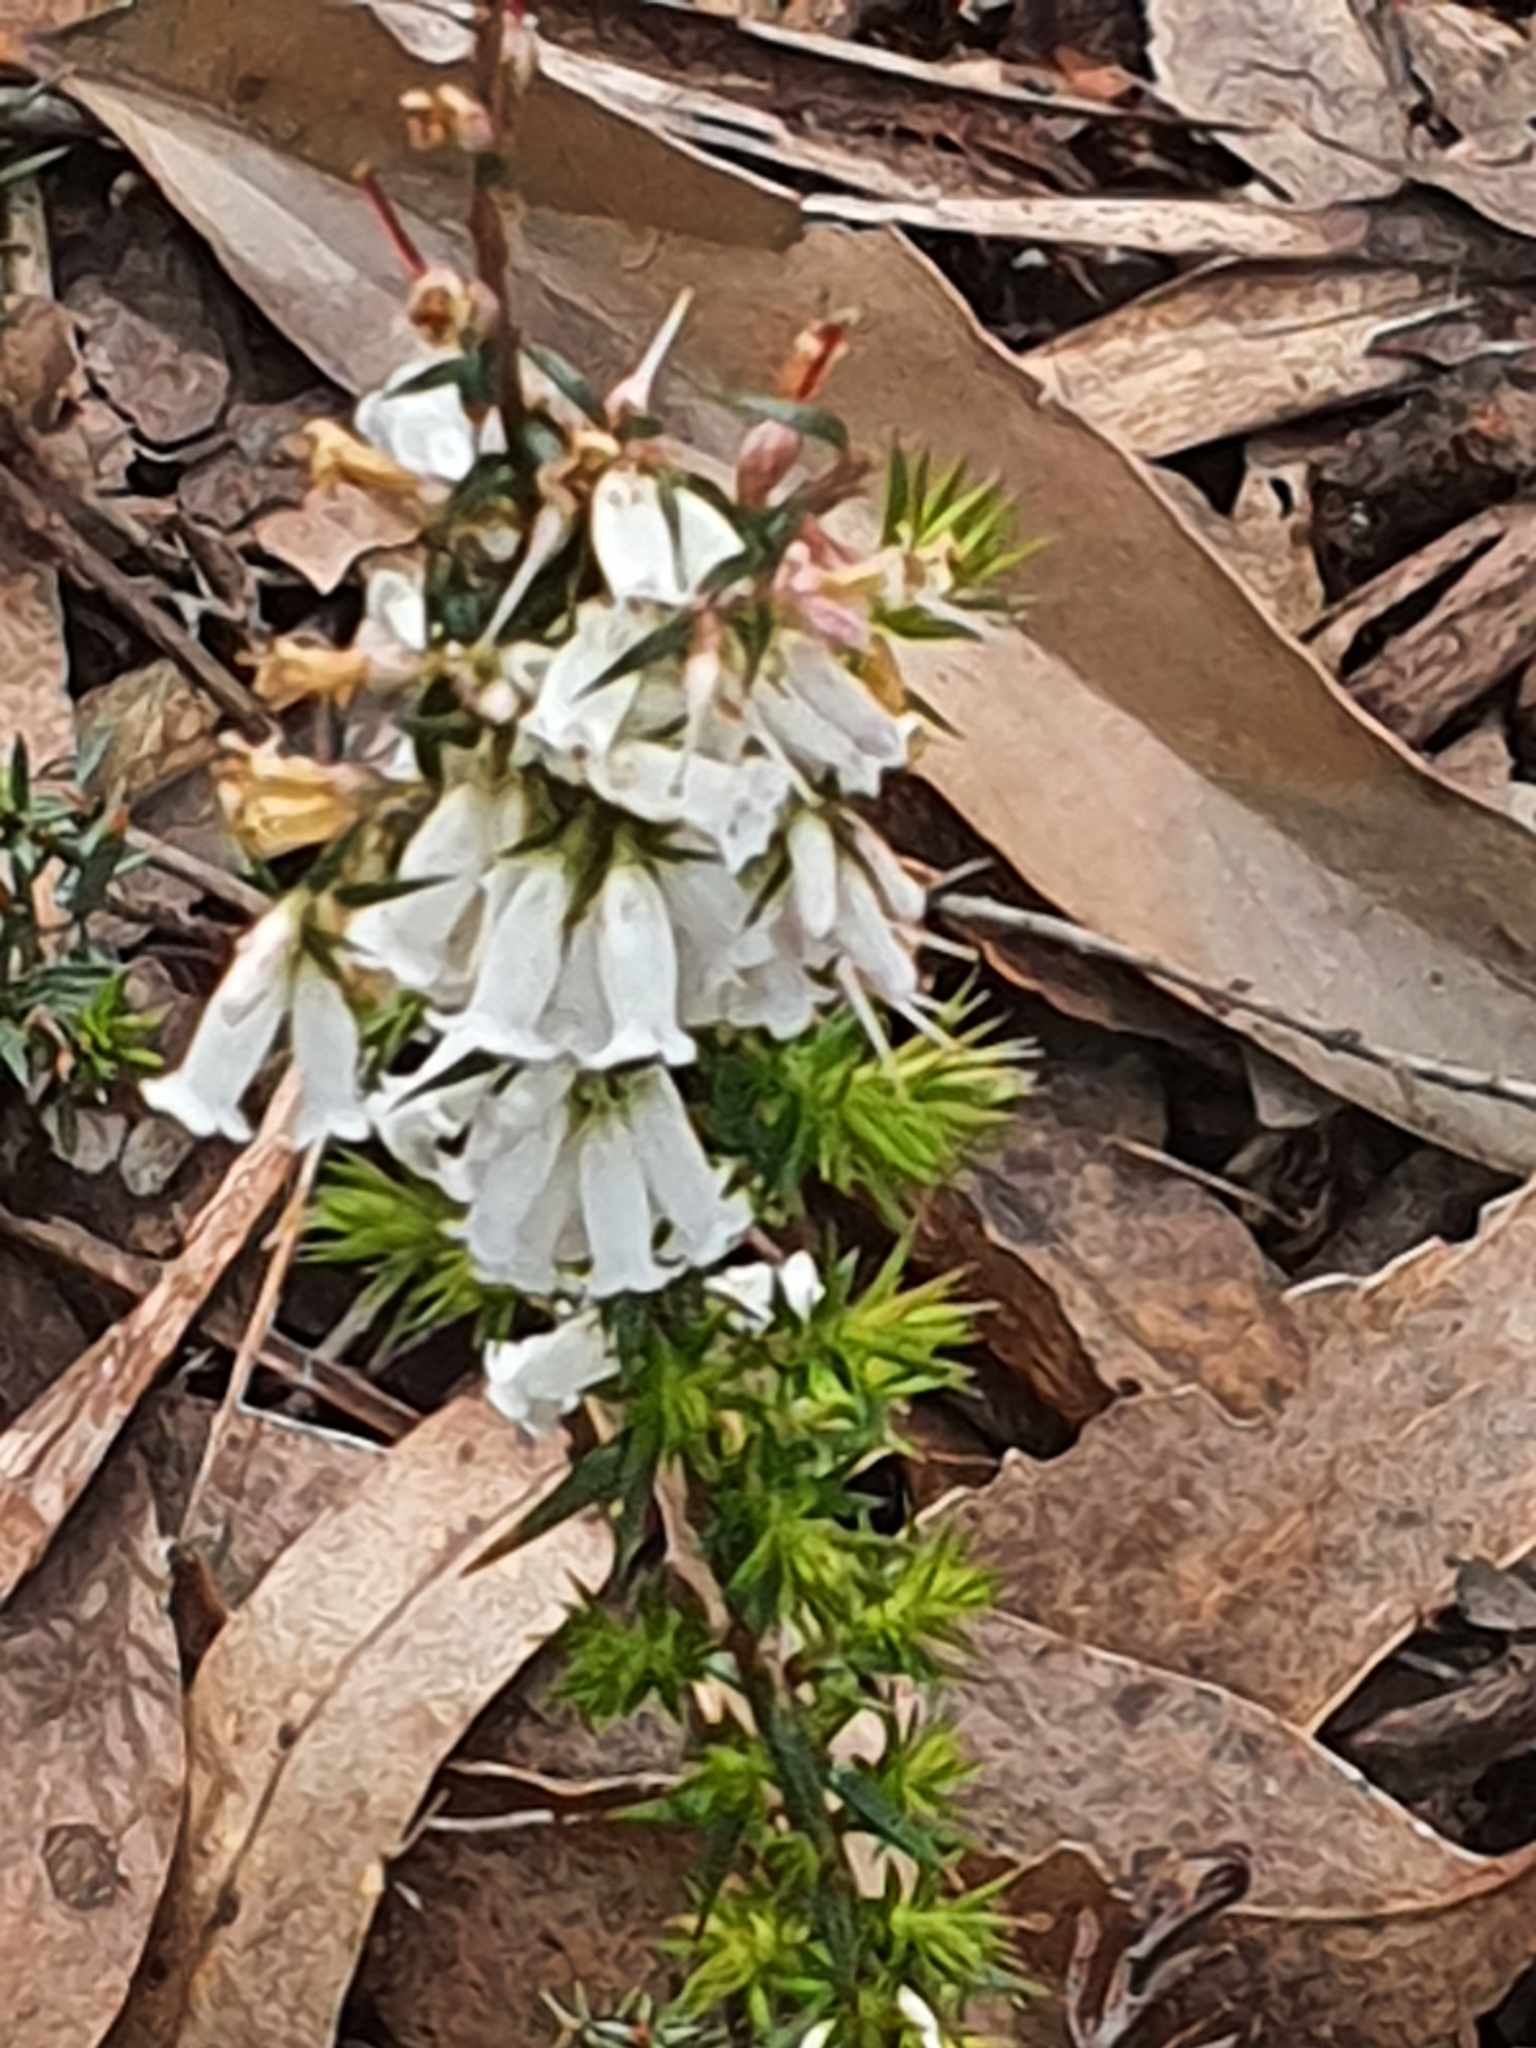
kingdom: Plantae
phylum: Tracheophyta
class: Magnoliopsida
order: Ericales
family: Ericaceae
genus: Epacris
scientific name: Epacris impressa
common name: Common-heath
